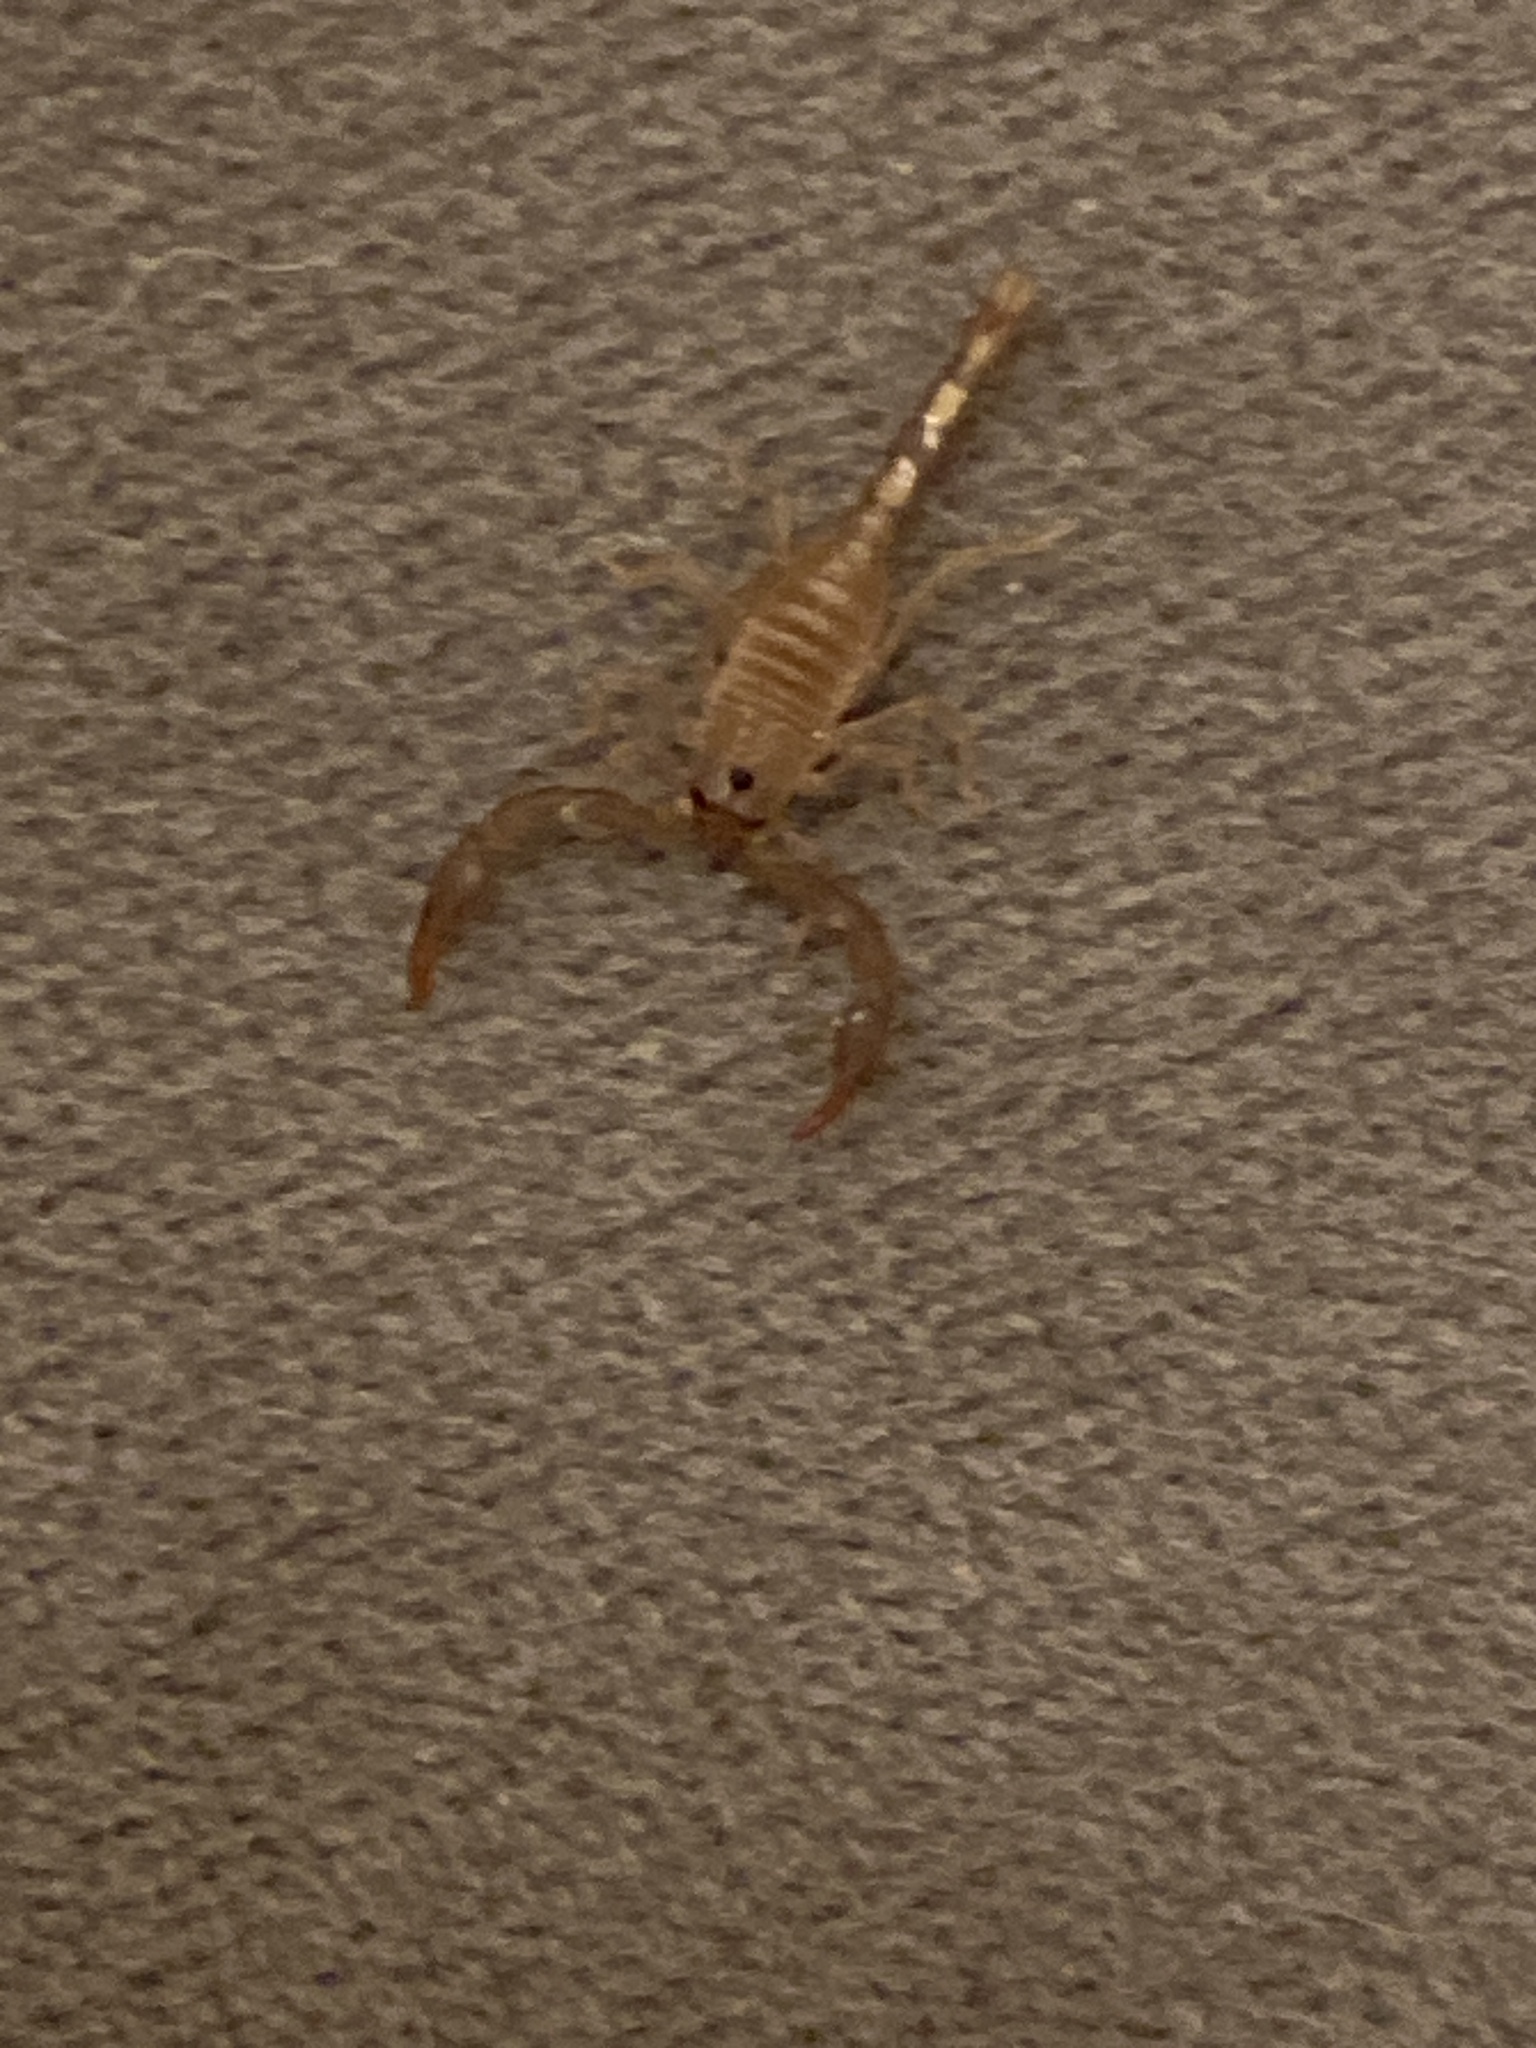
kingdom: Animalia
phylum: Arthropoda
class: Arachnida
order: Scorpiones
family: Chactidae
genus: Uroctonus
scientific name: Uroctonus mordax
